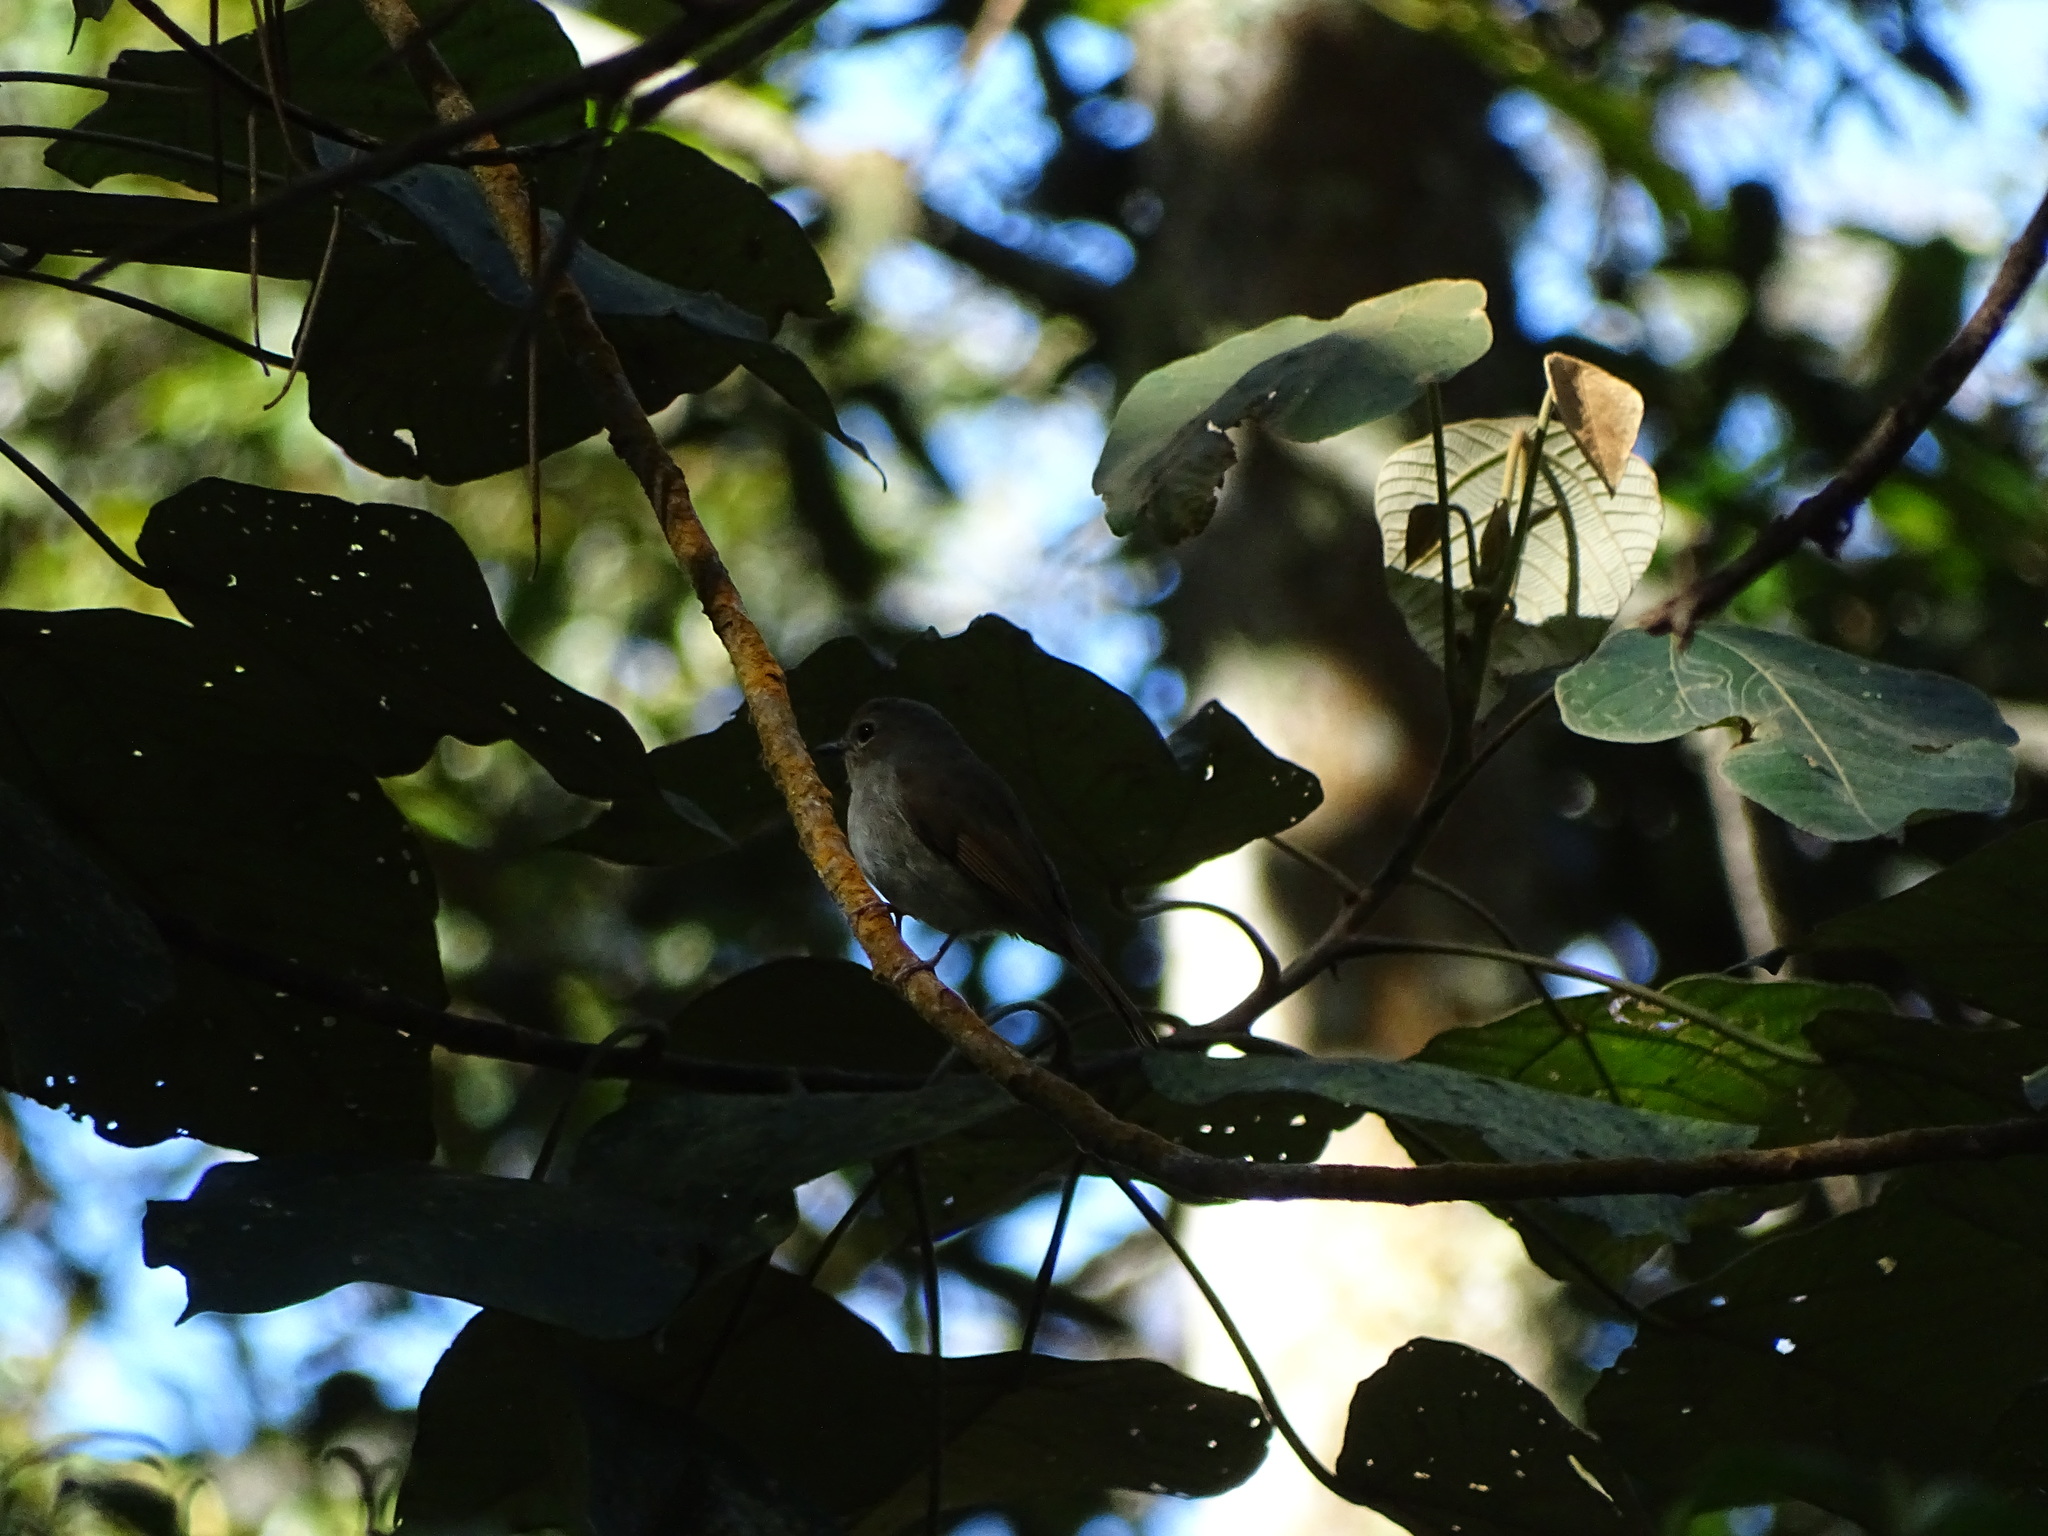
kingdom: Animalia
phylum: Chordata
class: Aves
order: Passeriformes
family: Muscicapidae
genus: Ficedula
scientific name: Ficedula westermanni
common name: Little pied flycatcher
